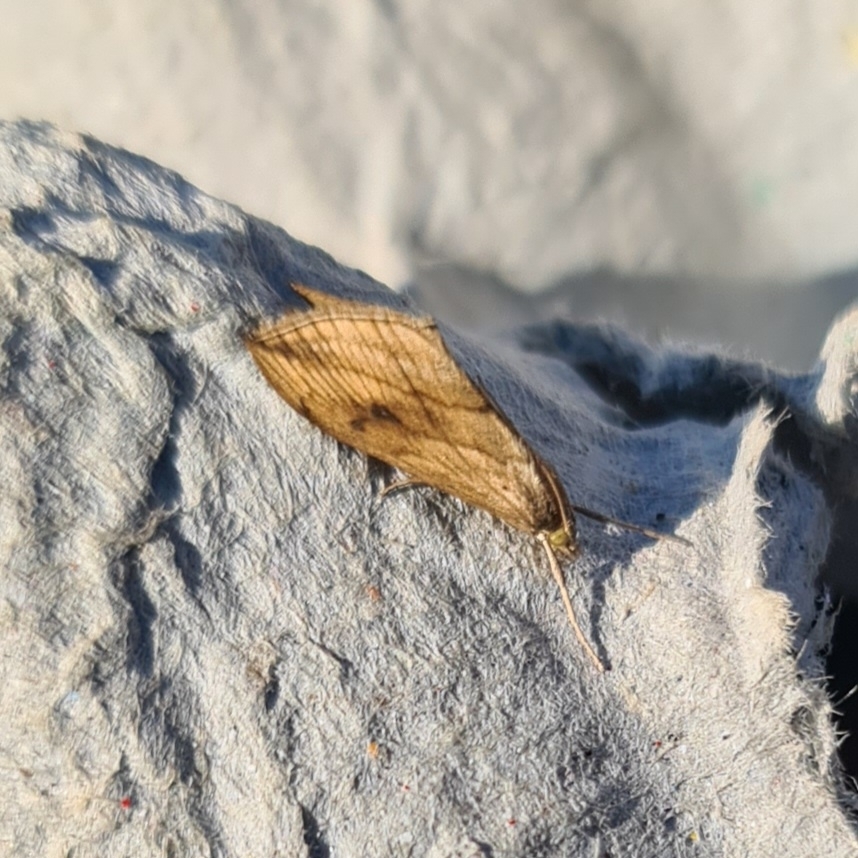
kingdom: Animalia
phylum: Arthropoda
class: Insecta
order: Lepidoptera
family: Crambidae
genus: Evergestis
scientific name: Evergestis forficalis
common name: Garden pebble
